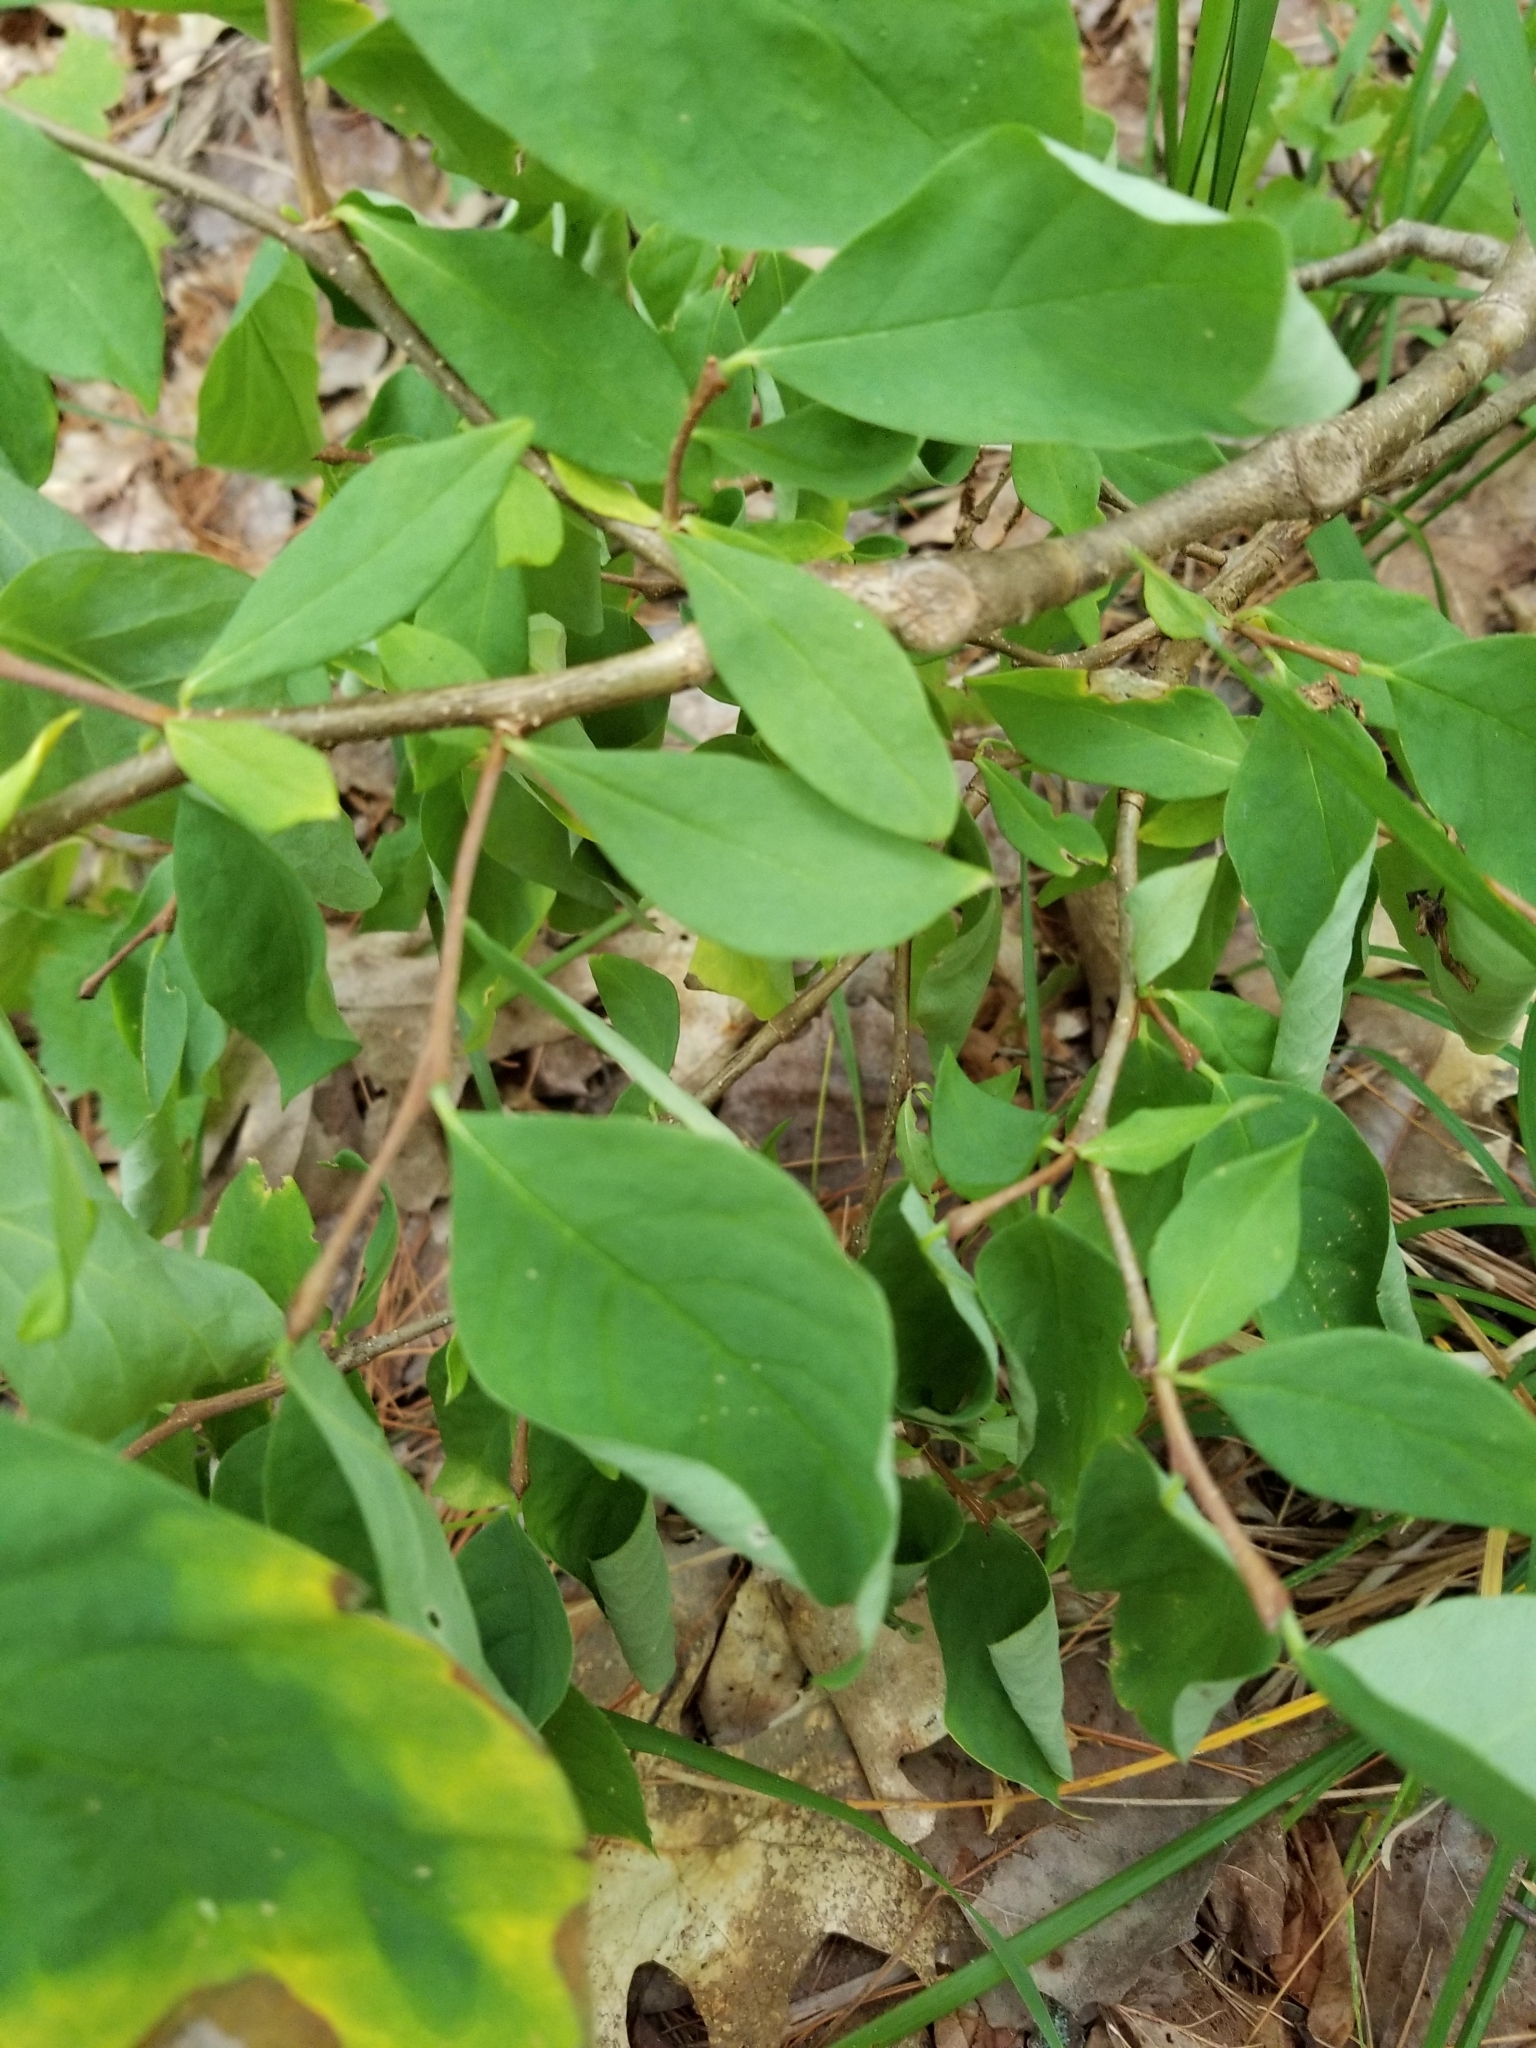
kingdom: Plantae
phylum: Tracheophyta
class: Magnoliopsida
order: Malvales
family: Thymelaeaceae
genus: Dirca
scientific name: Dirca palustris
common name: Leatherwood
